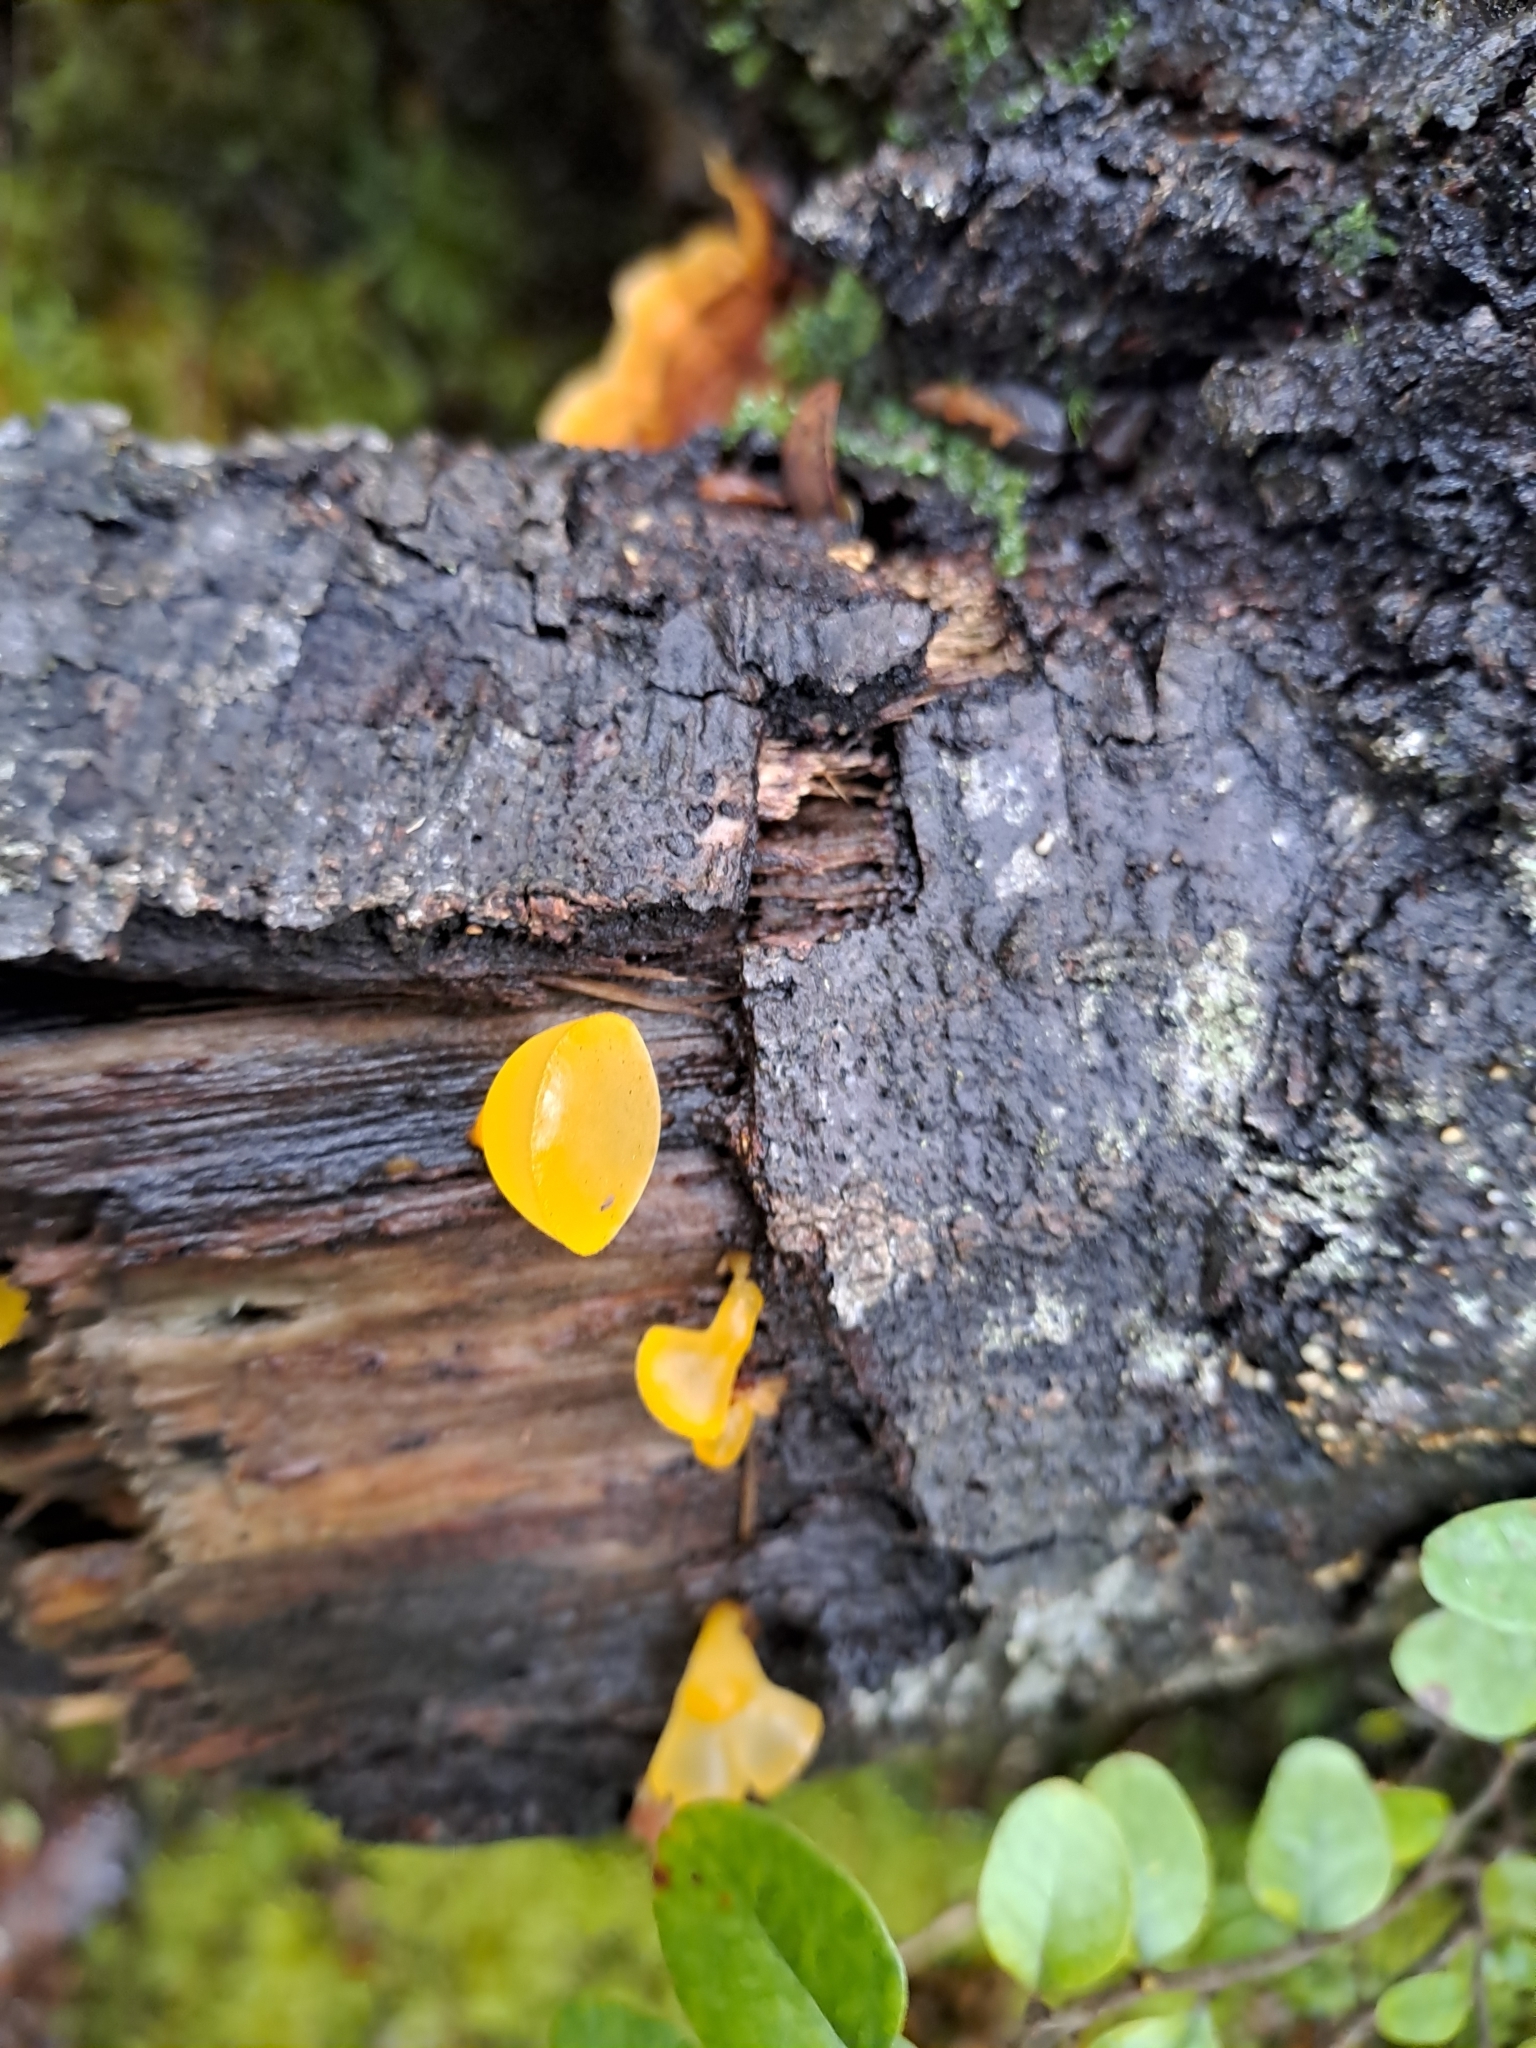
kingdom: Fungi
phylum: Basidiomycota
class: Dacrymycetes
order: Dacrymycetales
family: Dacrymycetaceae
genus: Heterotextus
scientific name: Heterotextus miltinus
